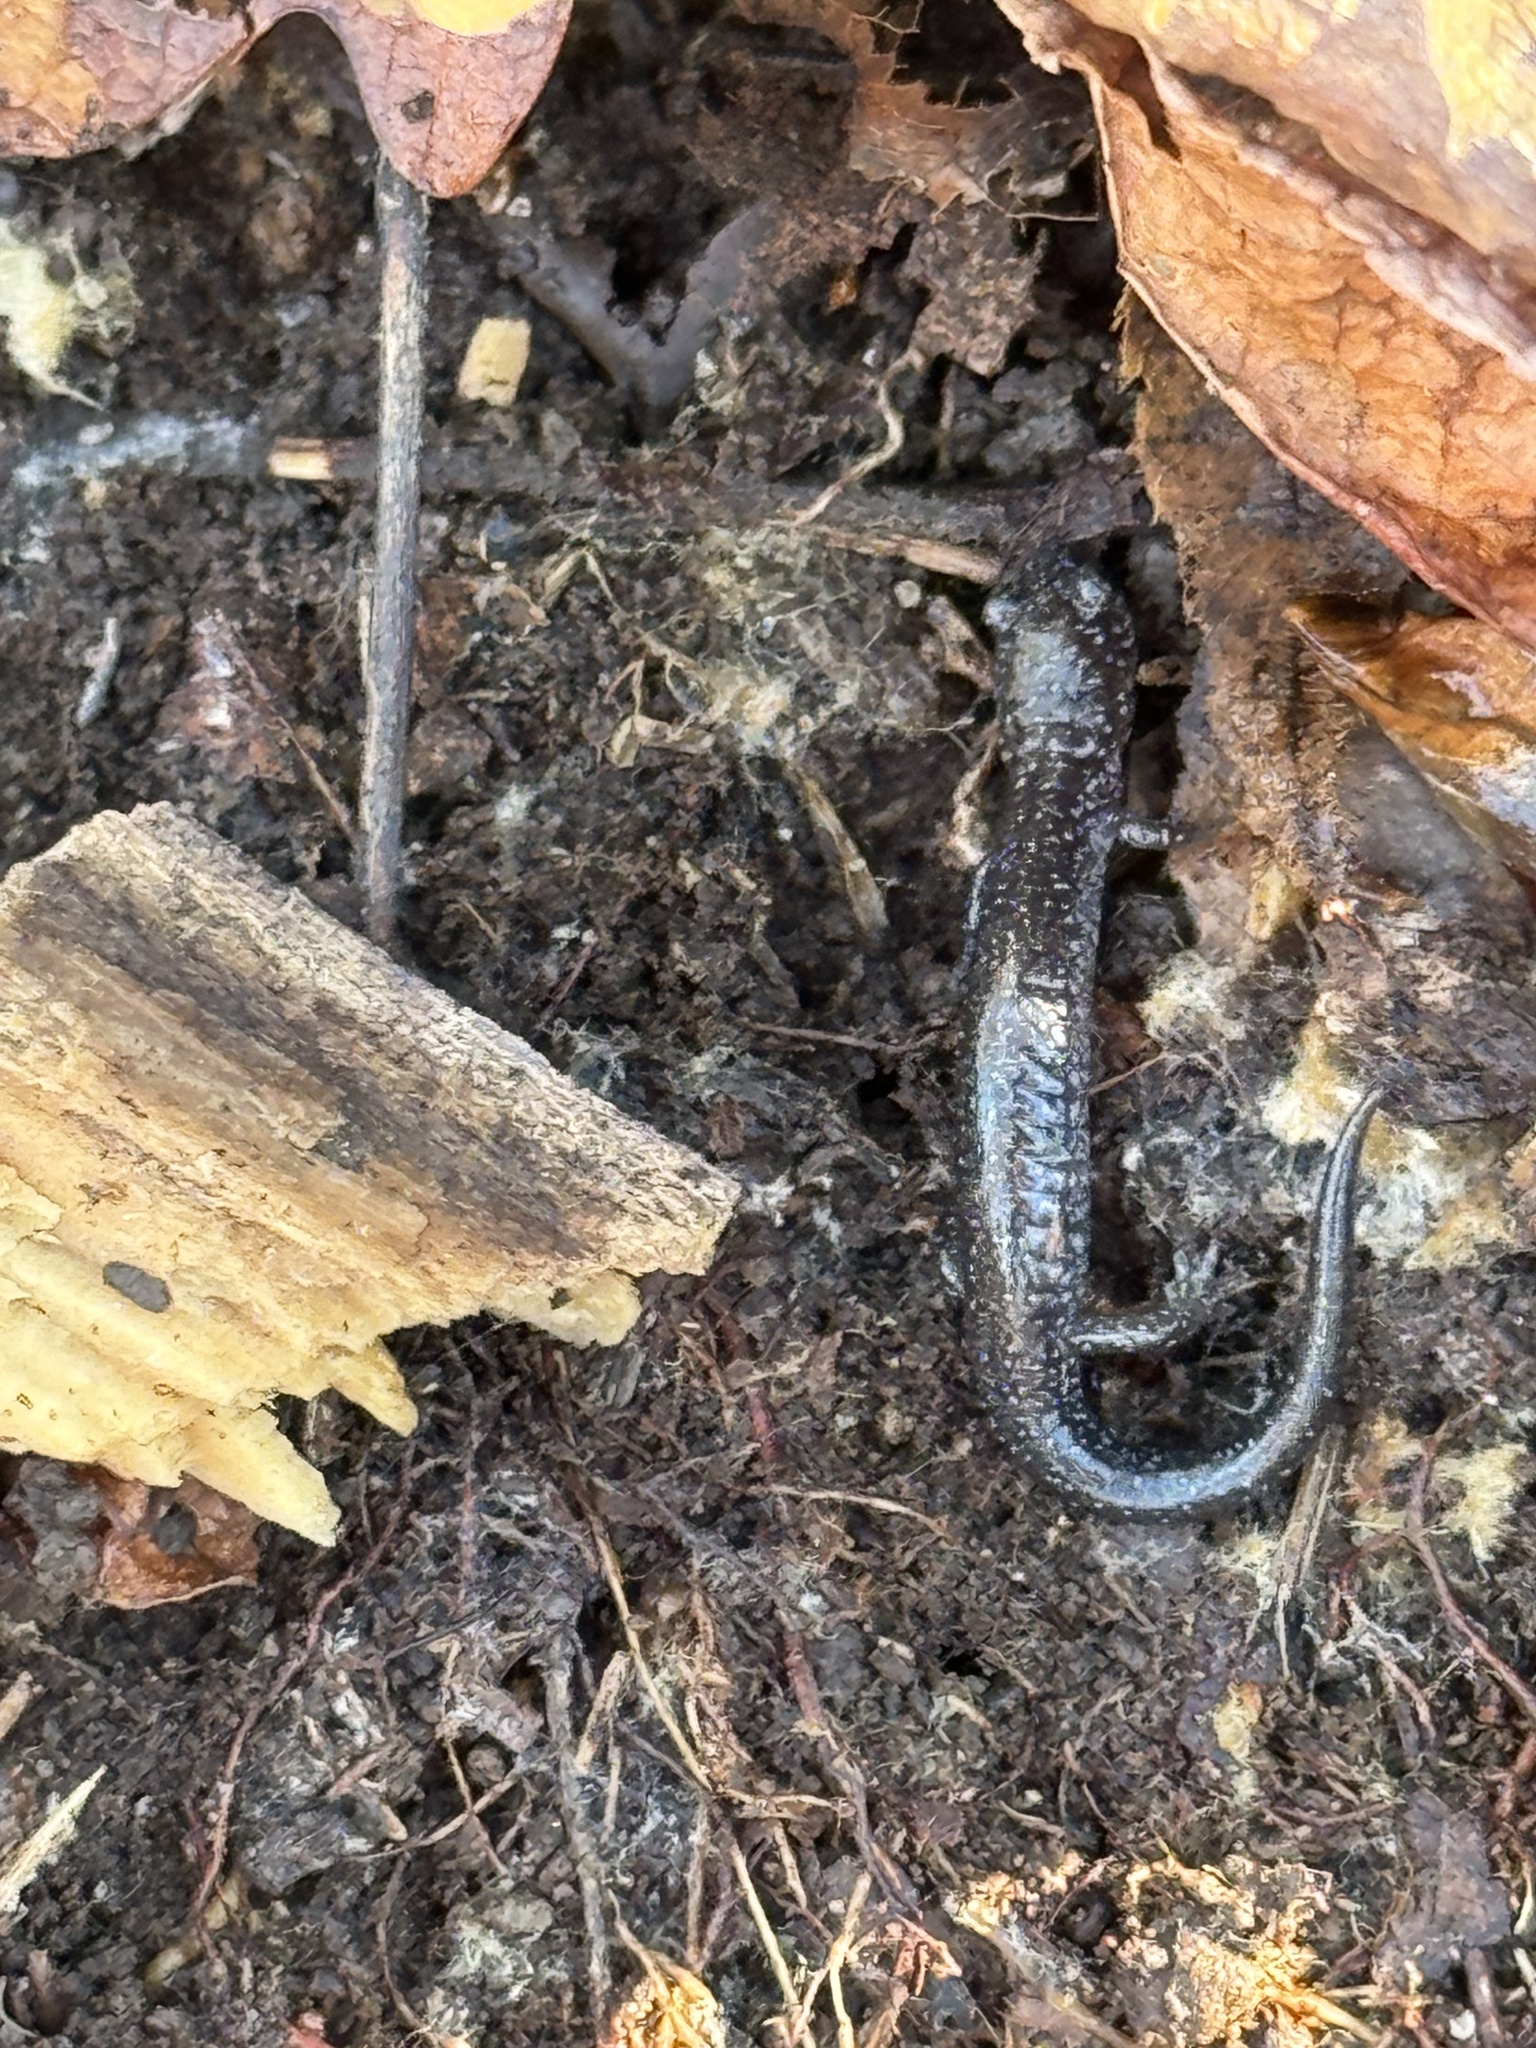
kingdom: Animalia
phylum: Chordata
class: Amphibia
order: Caudata
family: Plethodontidae
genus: Plethodon
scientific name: Plethodon cinereus
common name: Redback salamander
